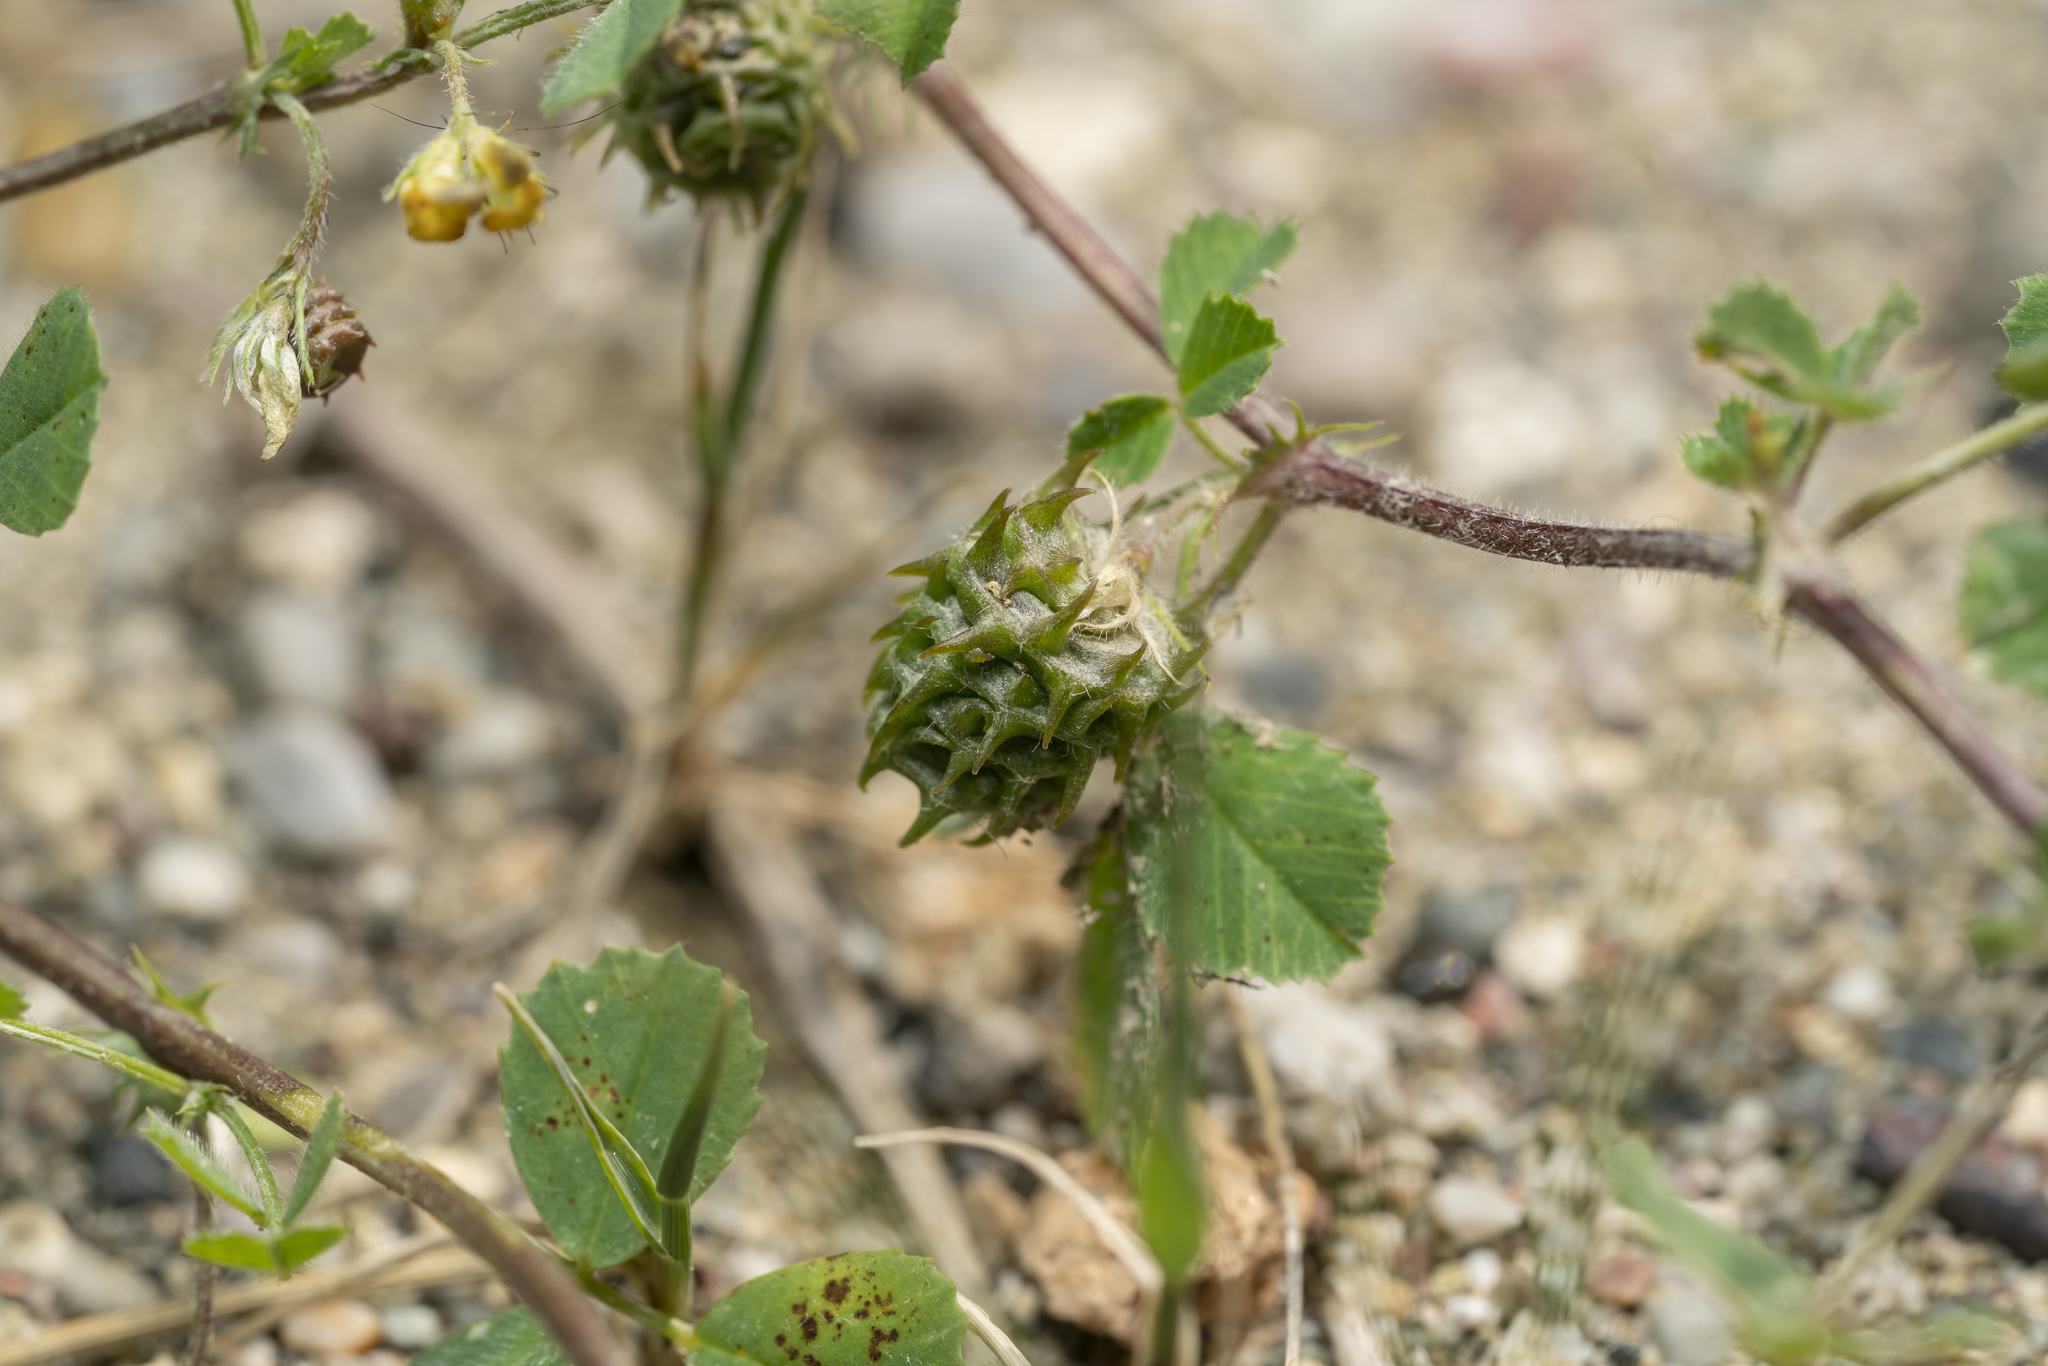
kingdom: Plantae
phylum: Tracheophyta
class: Magnoliopsida
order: Fabales
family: Fabaceae
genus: Medicago
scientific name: Medicago truncatula
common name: Strong-spined medick
